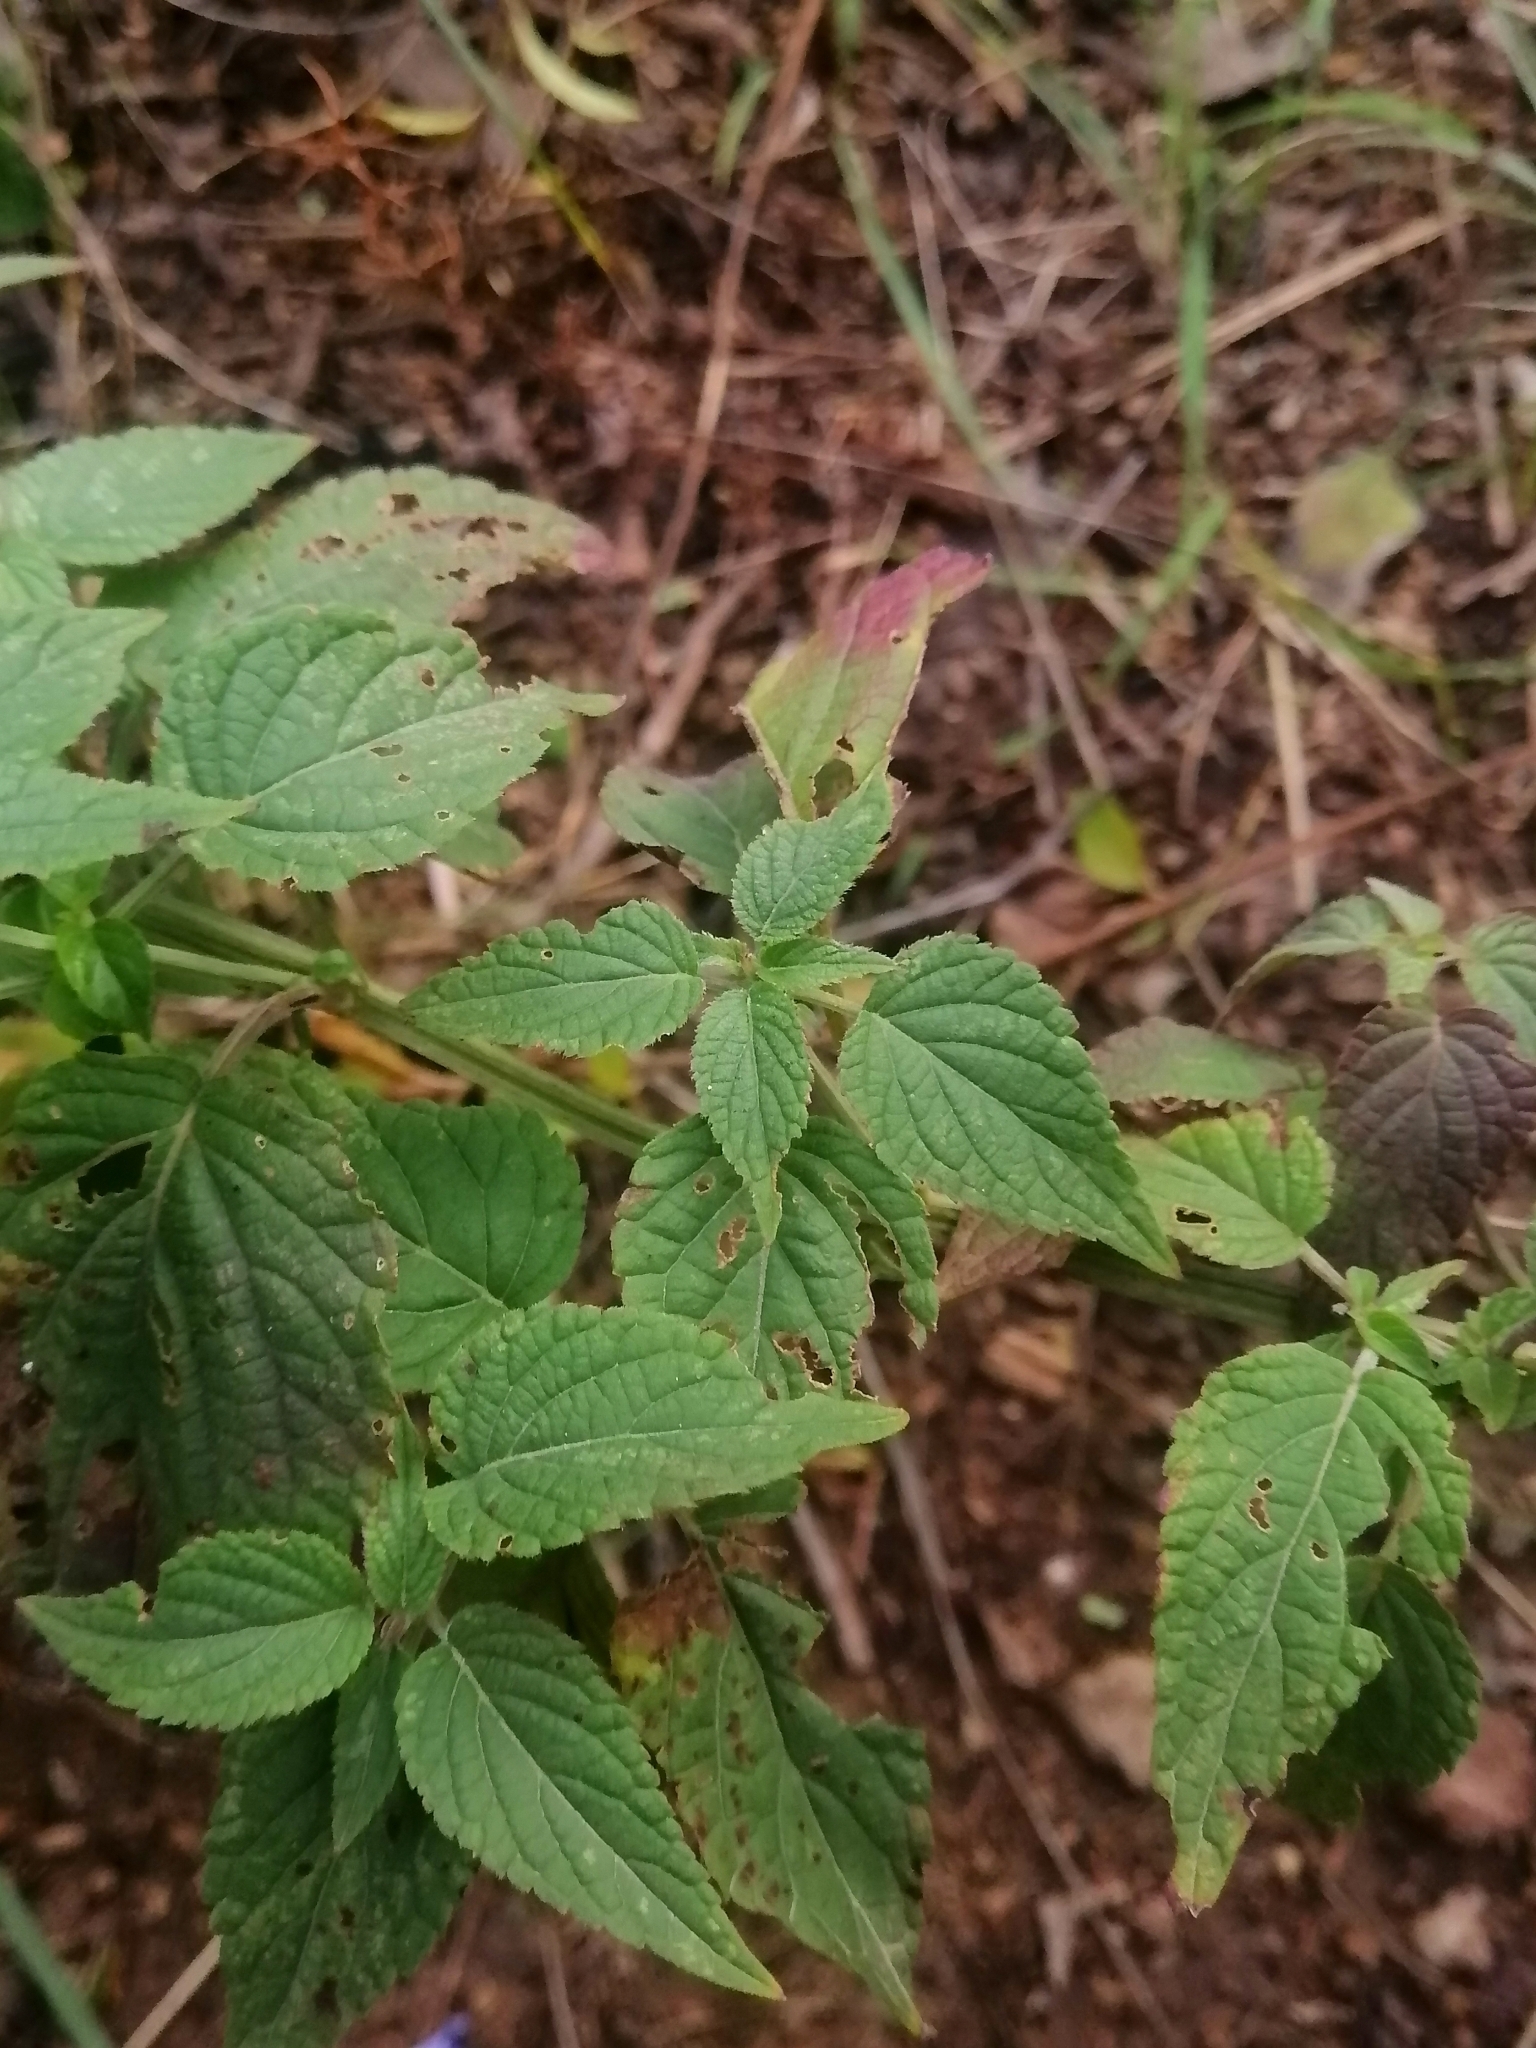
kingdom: Plantae
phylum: Tracheophyta
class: Magnoliopsida
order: Lamiales
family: Lamiaceae
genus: Salvia
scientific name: Salvia polystachia
